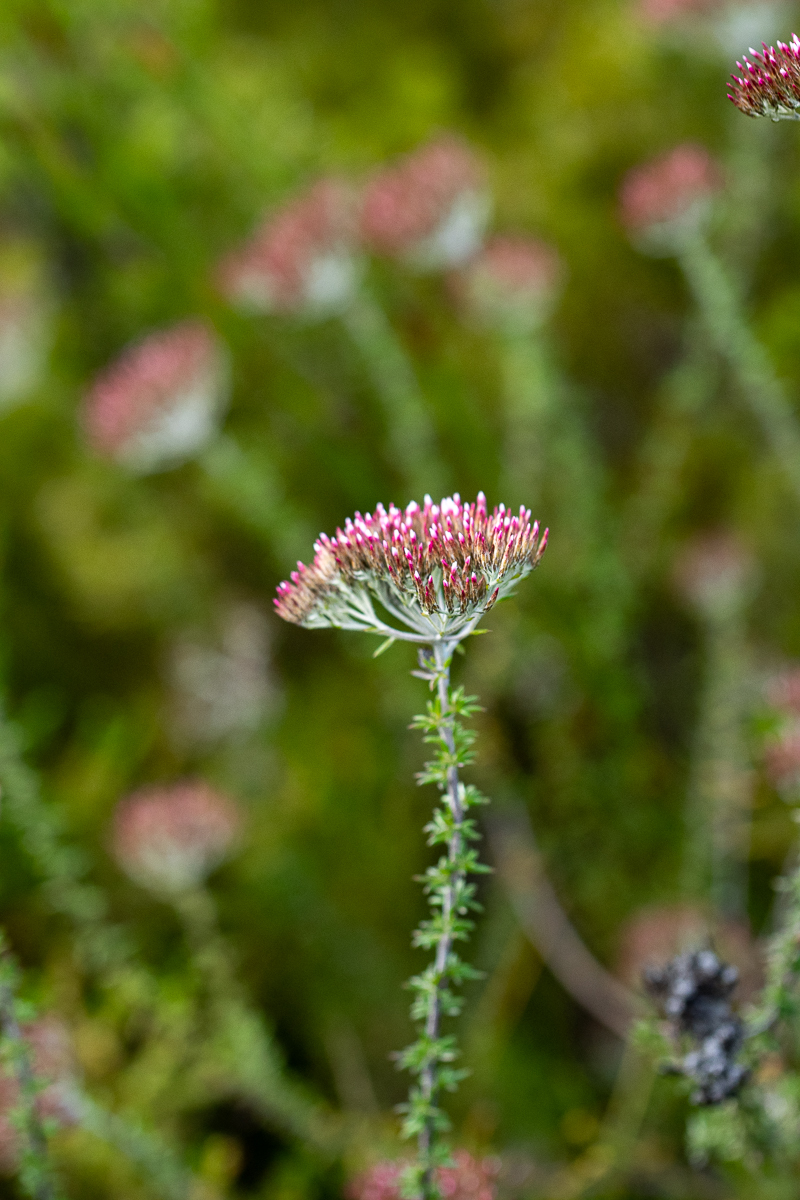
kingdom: Plantae
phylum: Tracheophyta
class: Magnoliopsida
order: Asterales
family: Asteraceae
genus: Metalasia
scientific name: Metalasia densa
